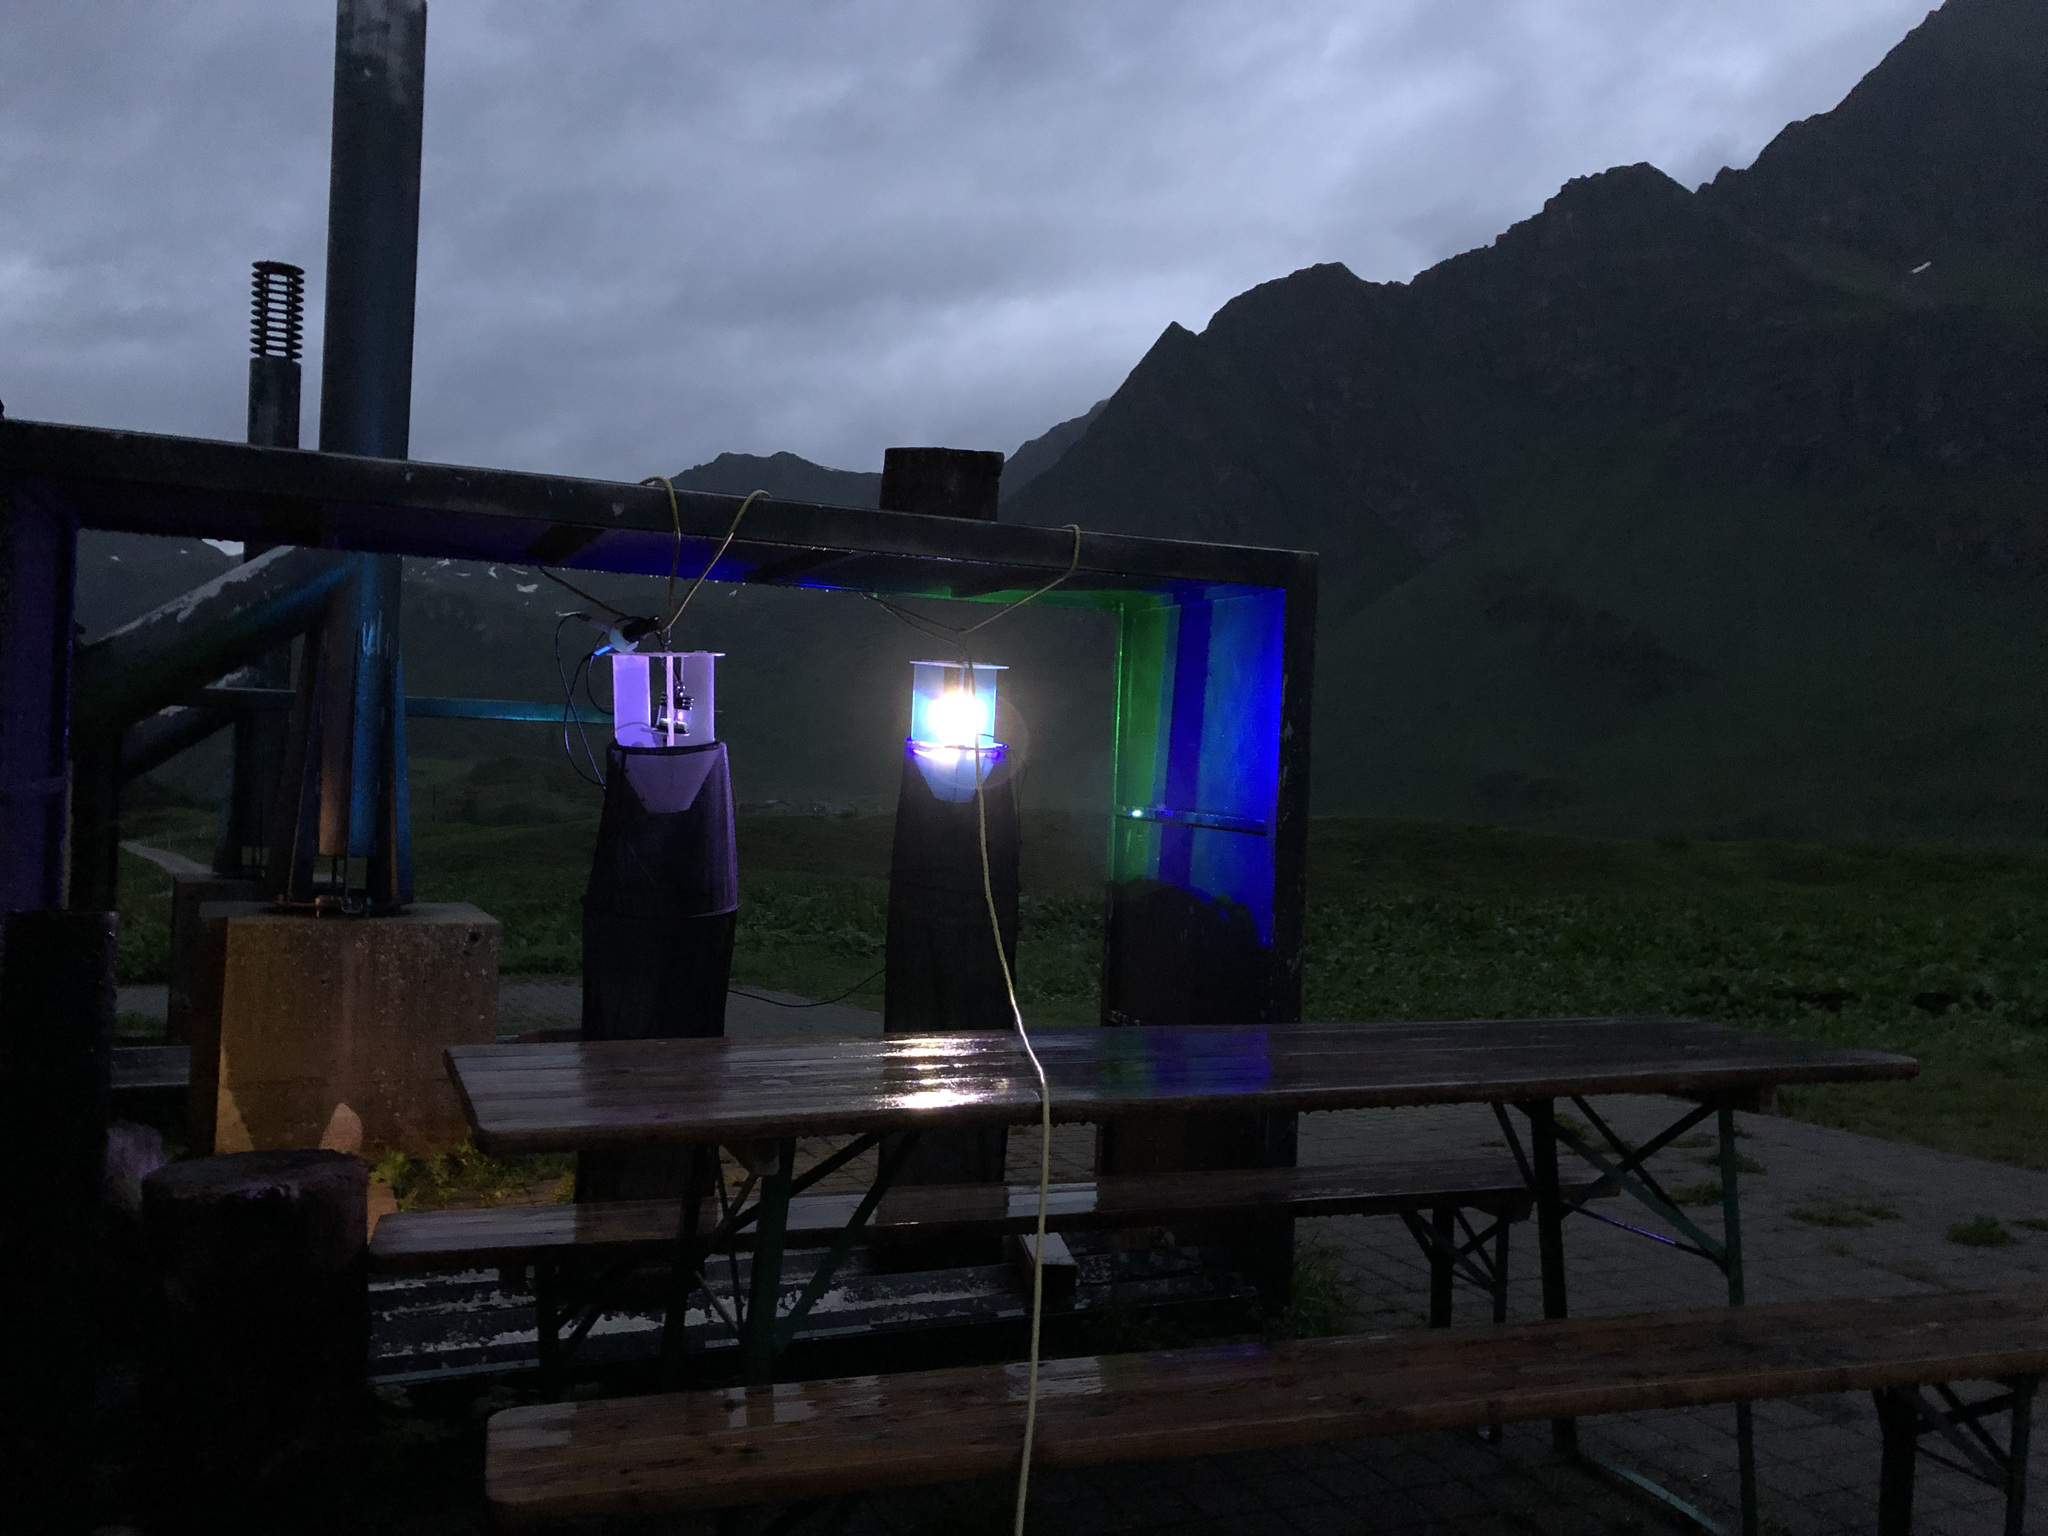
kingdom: Animalia
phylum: Arthropoda
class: Insecta
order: Lepidoptera
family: Noctuidae
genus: Hada
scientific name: Hada plebeja
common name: Shears
